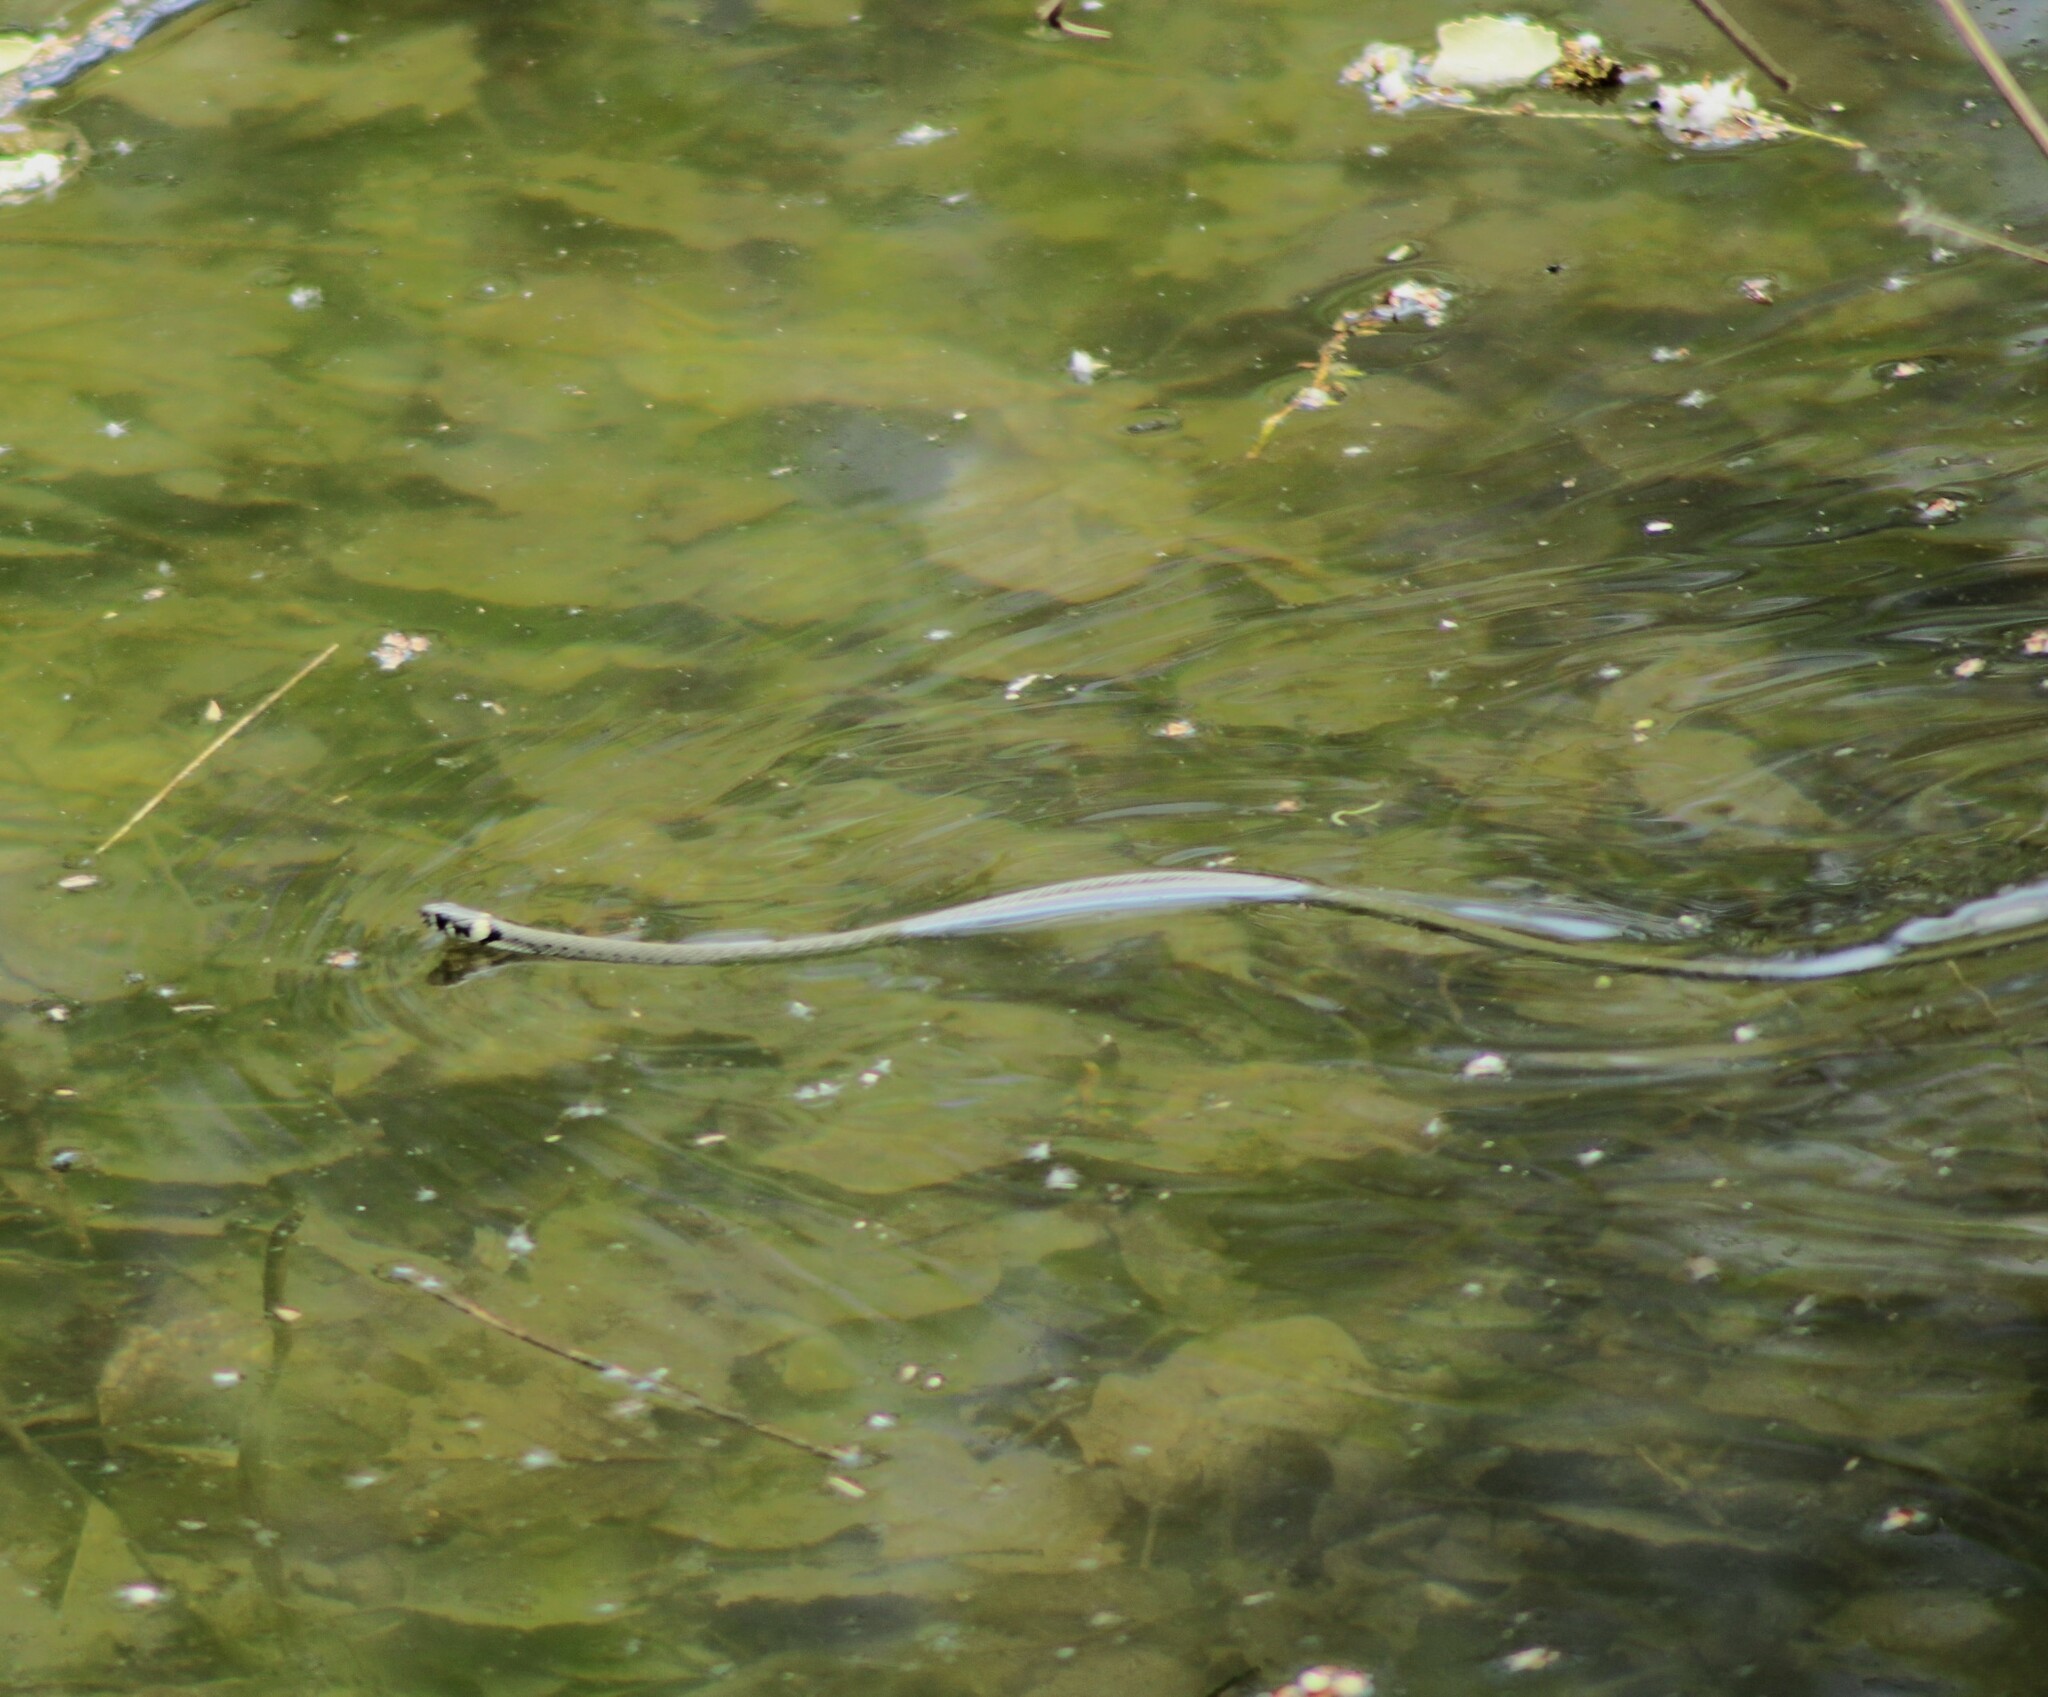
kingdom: Animalia
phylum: Chordata
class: Squamata
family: Colubridae
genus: Natrix
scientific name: Natrix natrix
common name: Grass snake
